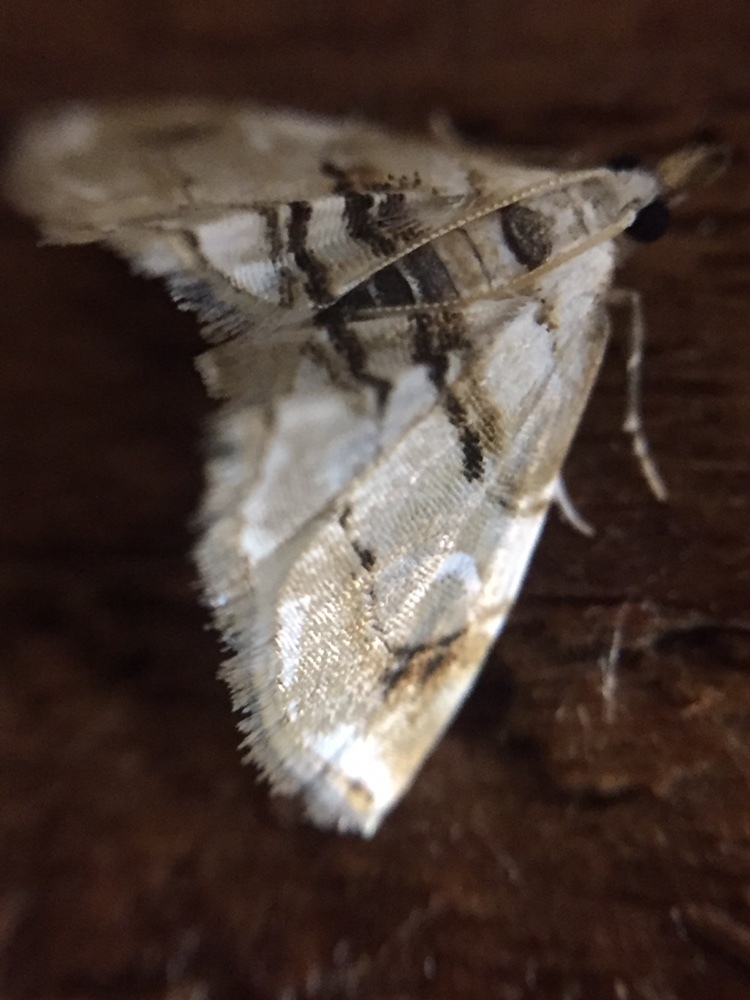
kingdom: Animalia
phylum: Arthropoda
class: Insecta
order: Lepidoptera
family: Crambidae
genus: Trichophysetis
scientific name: Trichophysetis
